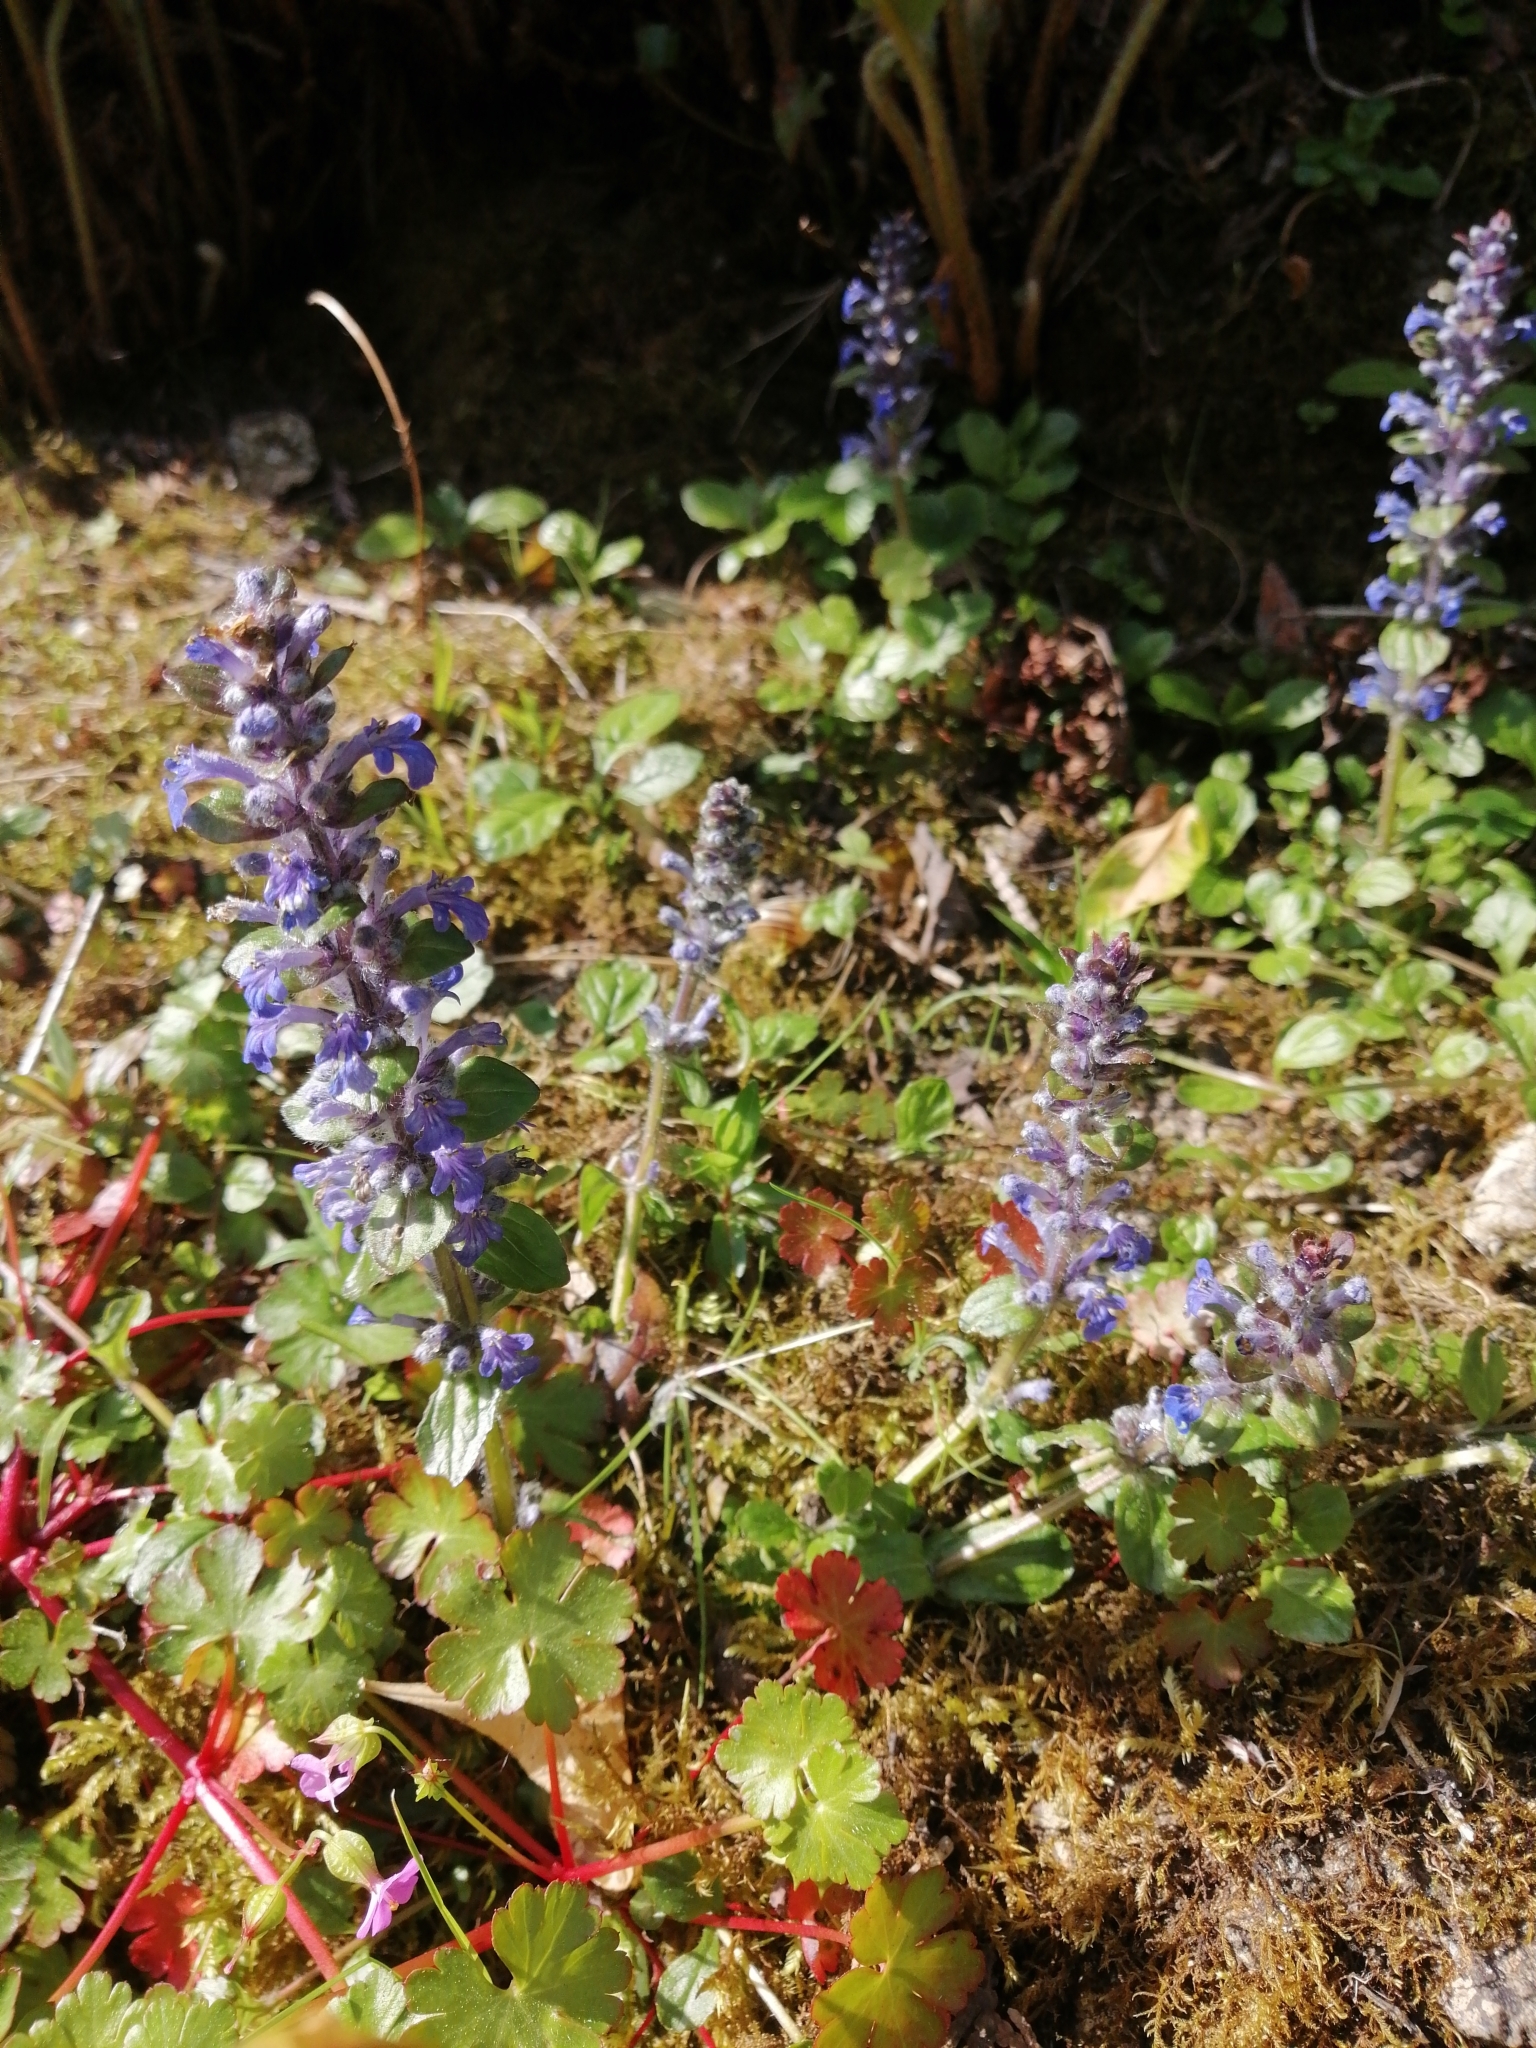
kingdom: Plantae
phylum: Tracheophyta
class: Magnoliopsida
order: Lamiales
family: Lamiaceae
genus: Ajuga
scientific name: Ajuga reptans
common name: Bugle
